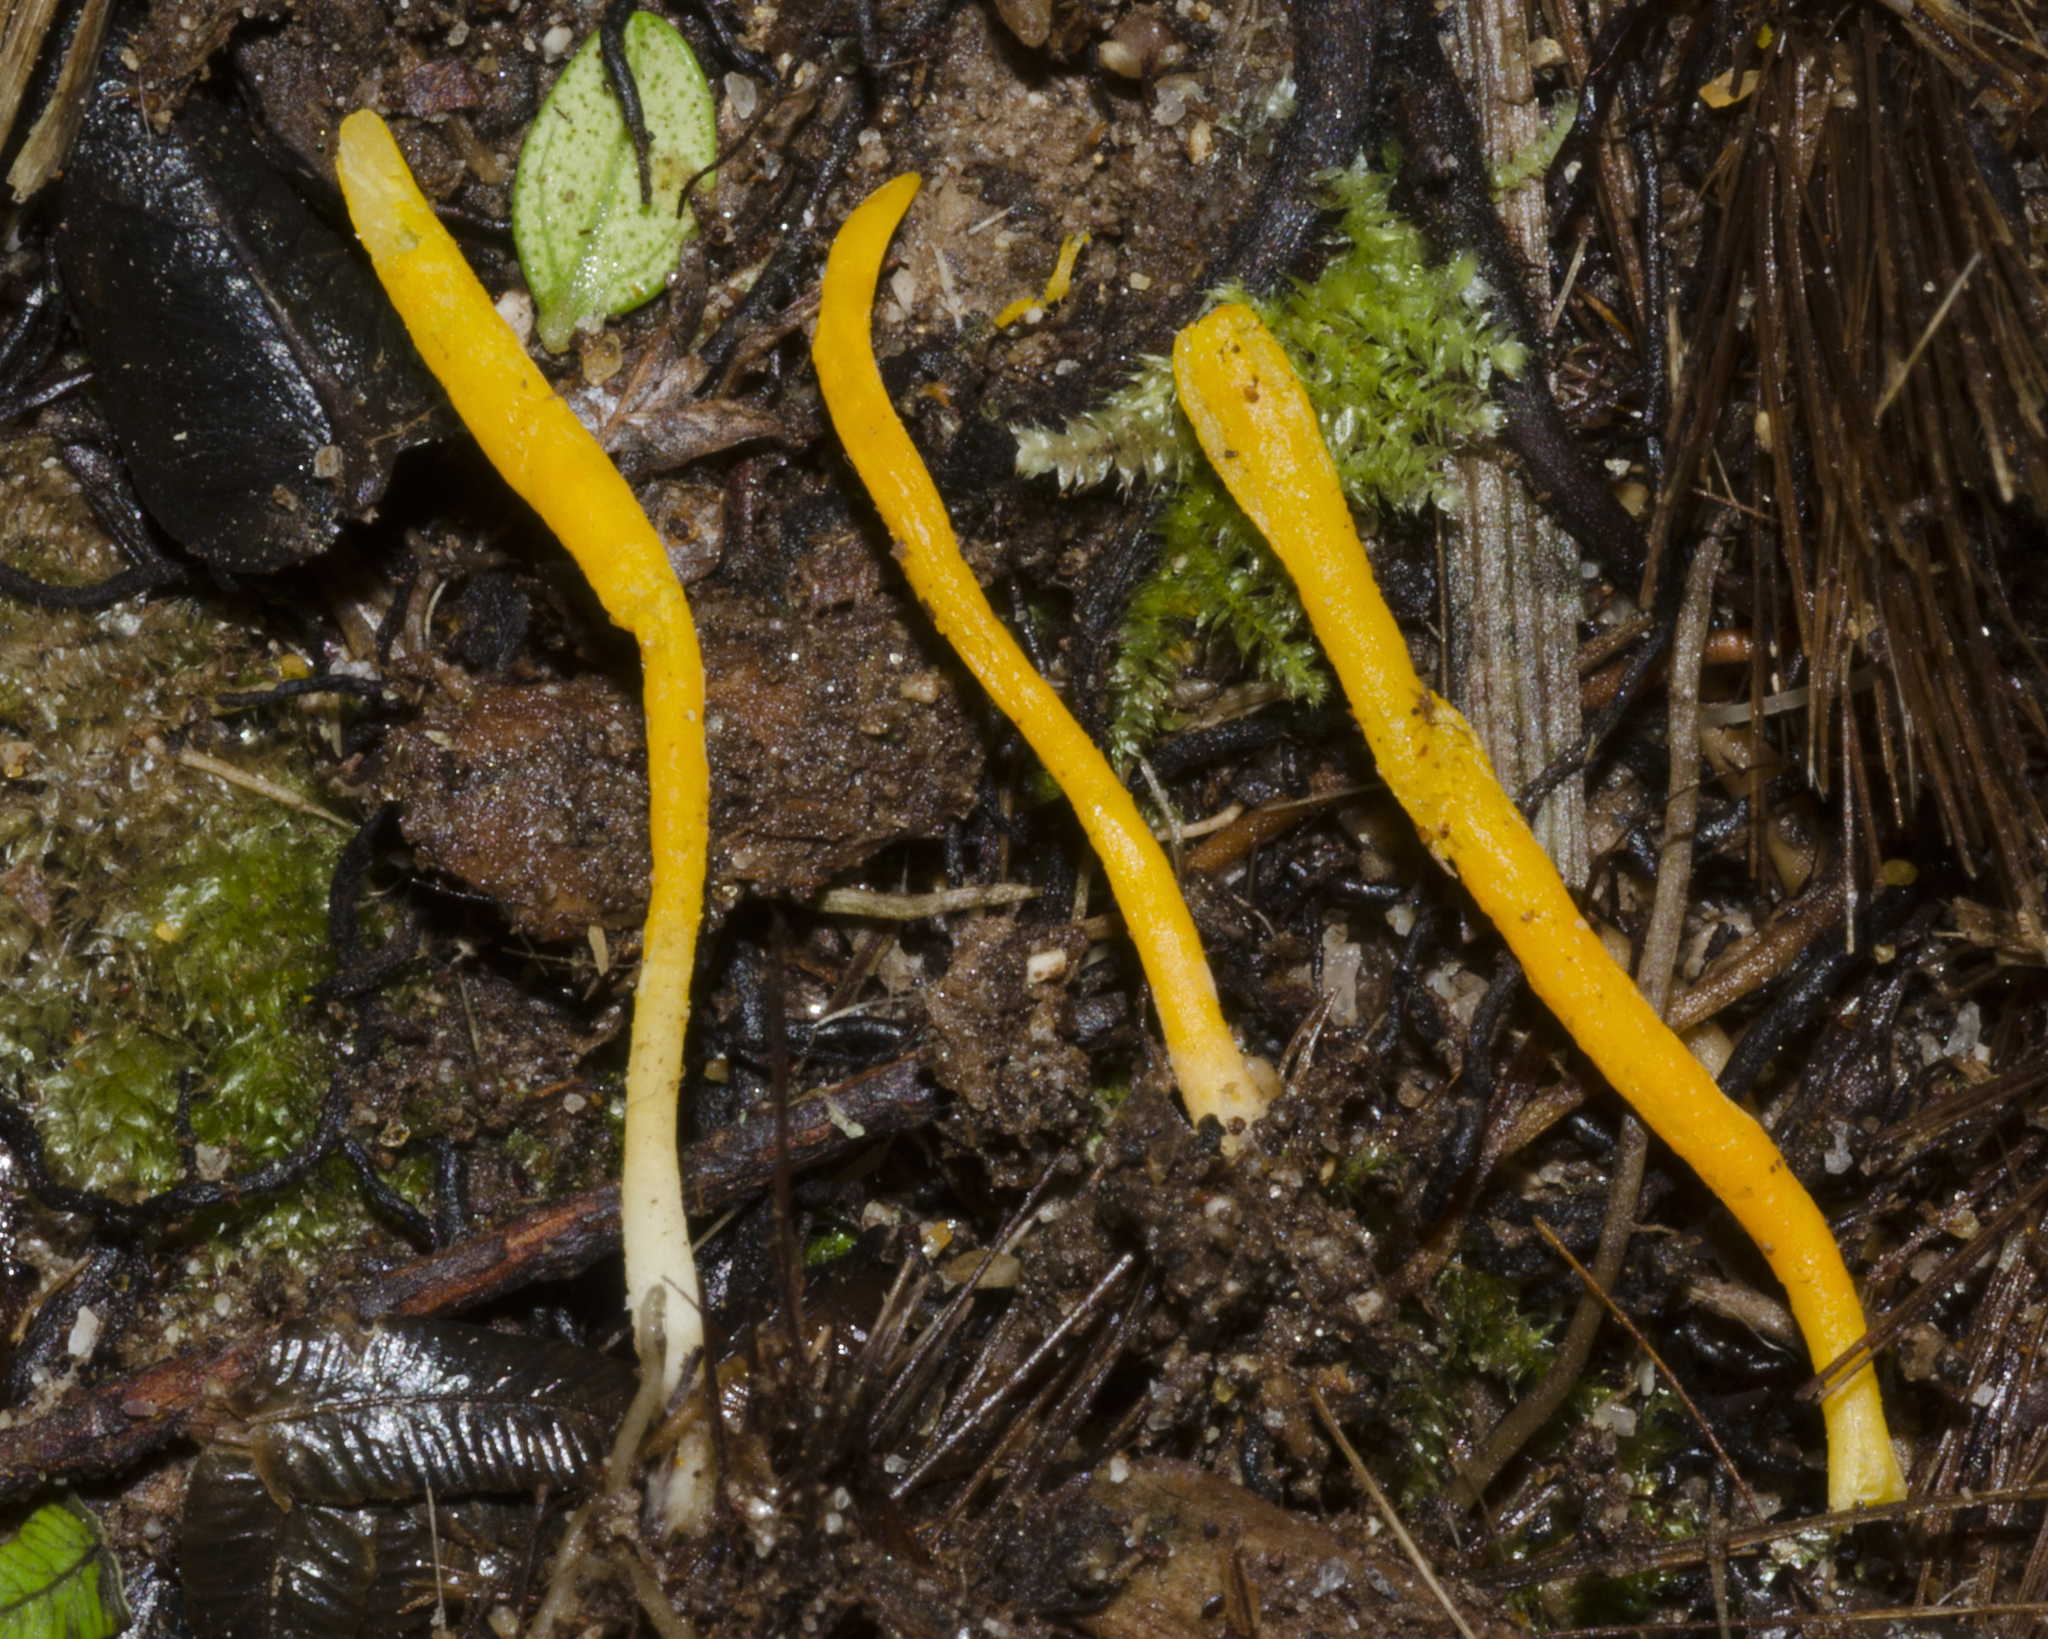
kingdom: Fungi
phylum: Basidiomycota
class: Agaricomycetes
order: Agaricales
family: Clavariaceae
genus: Clavulinopsis
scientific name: Clavulinopsis depokensis
